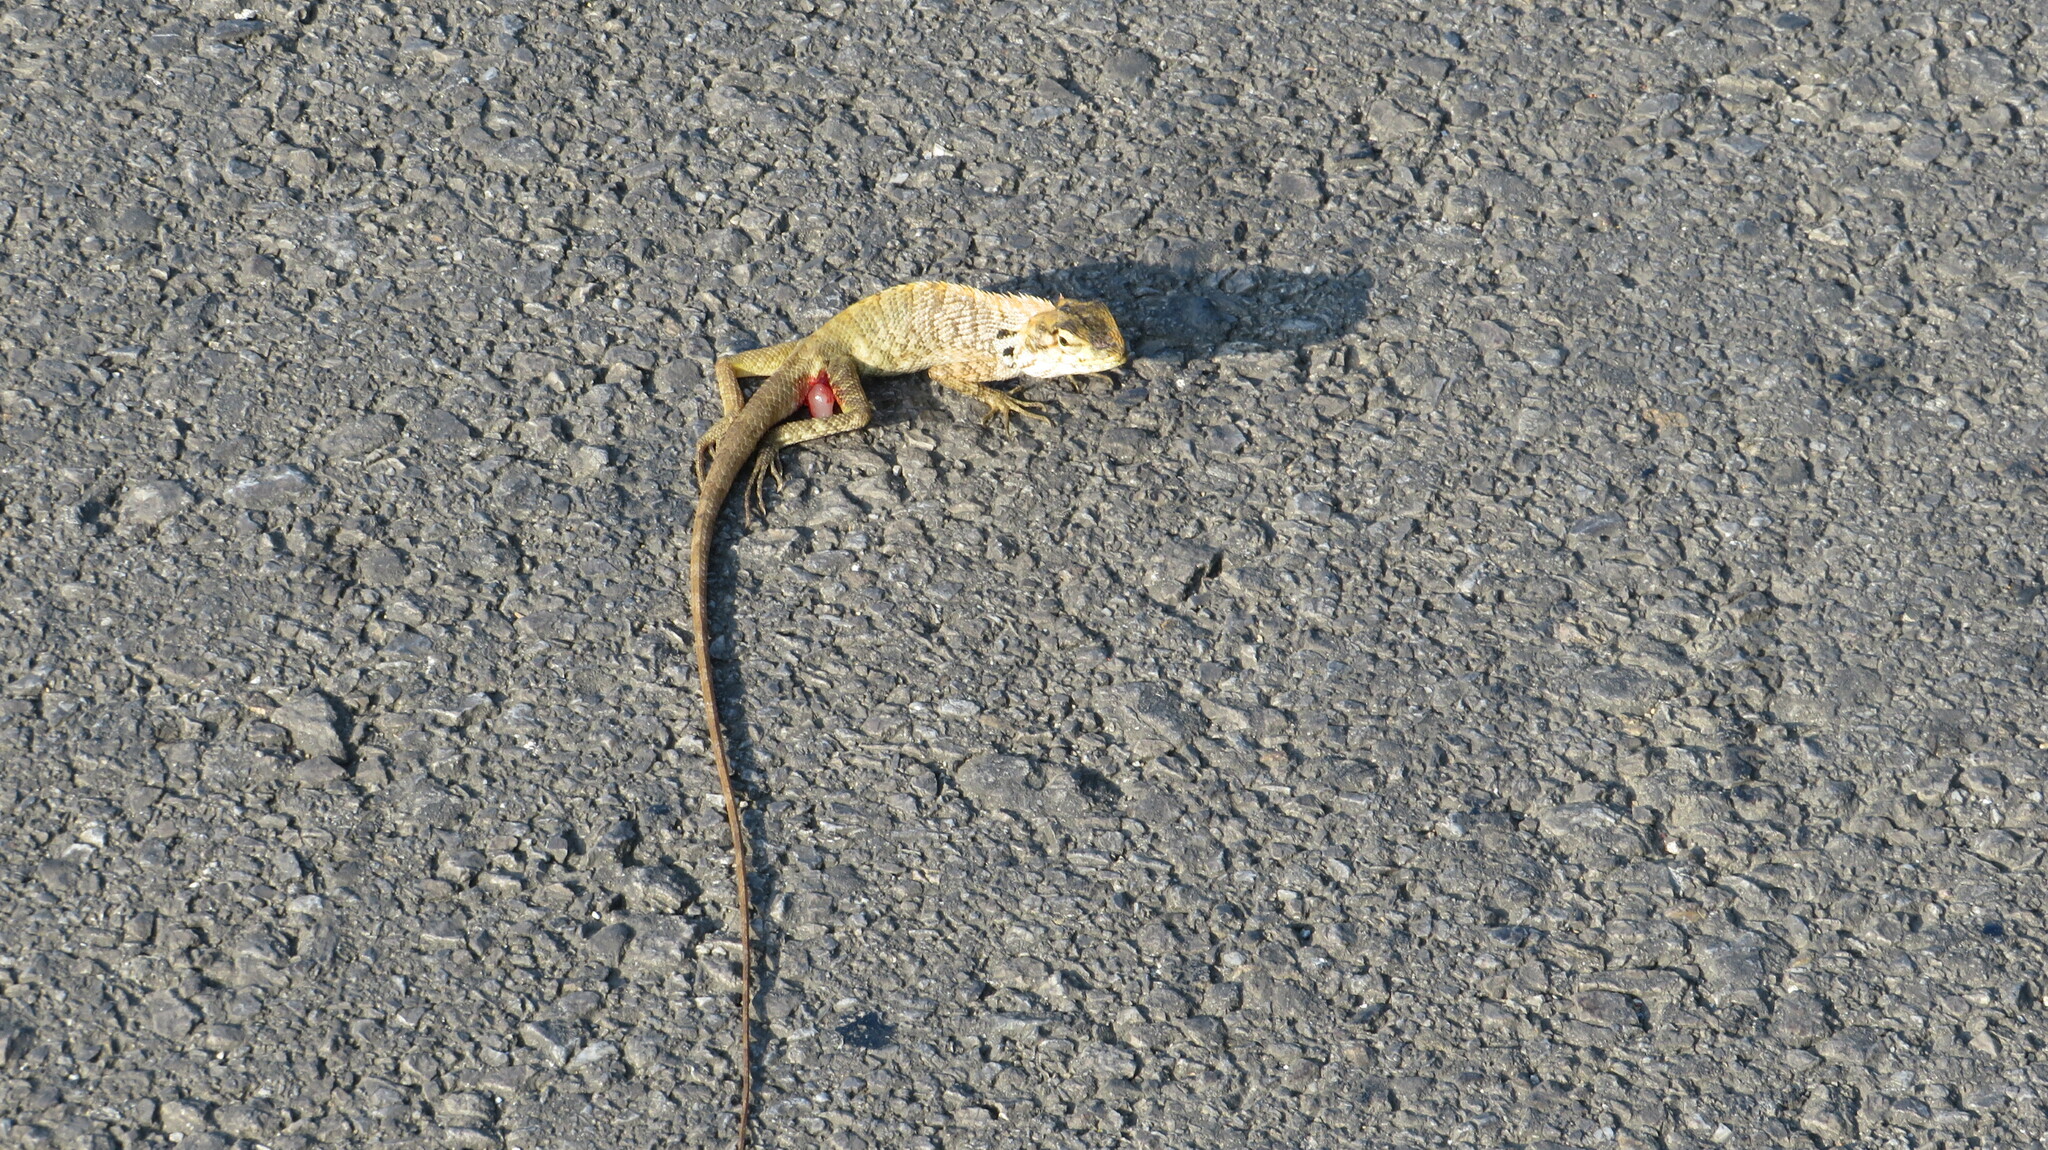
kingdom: Animalia
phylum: Chordata
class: Squamata
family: Agamidae
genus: Calotes
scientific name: Calotes versicolor
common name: Oriental garden lizard
